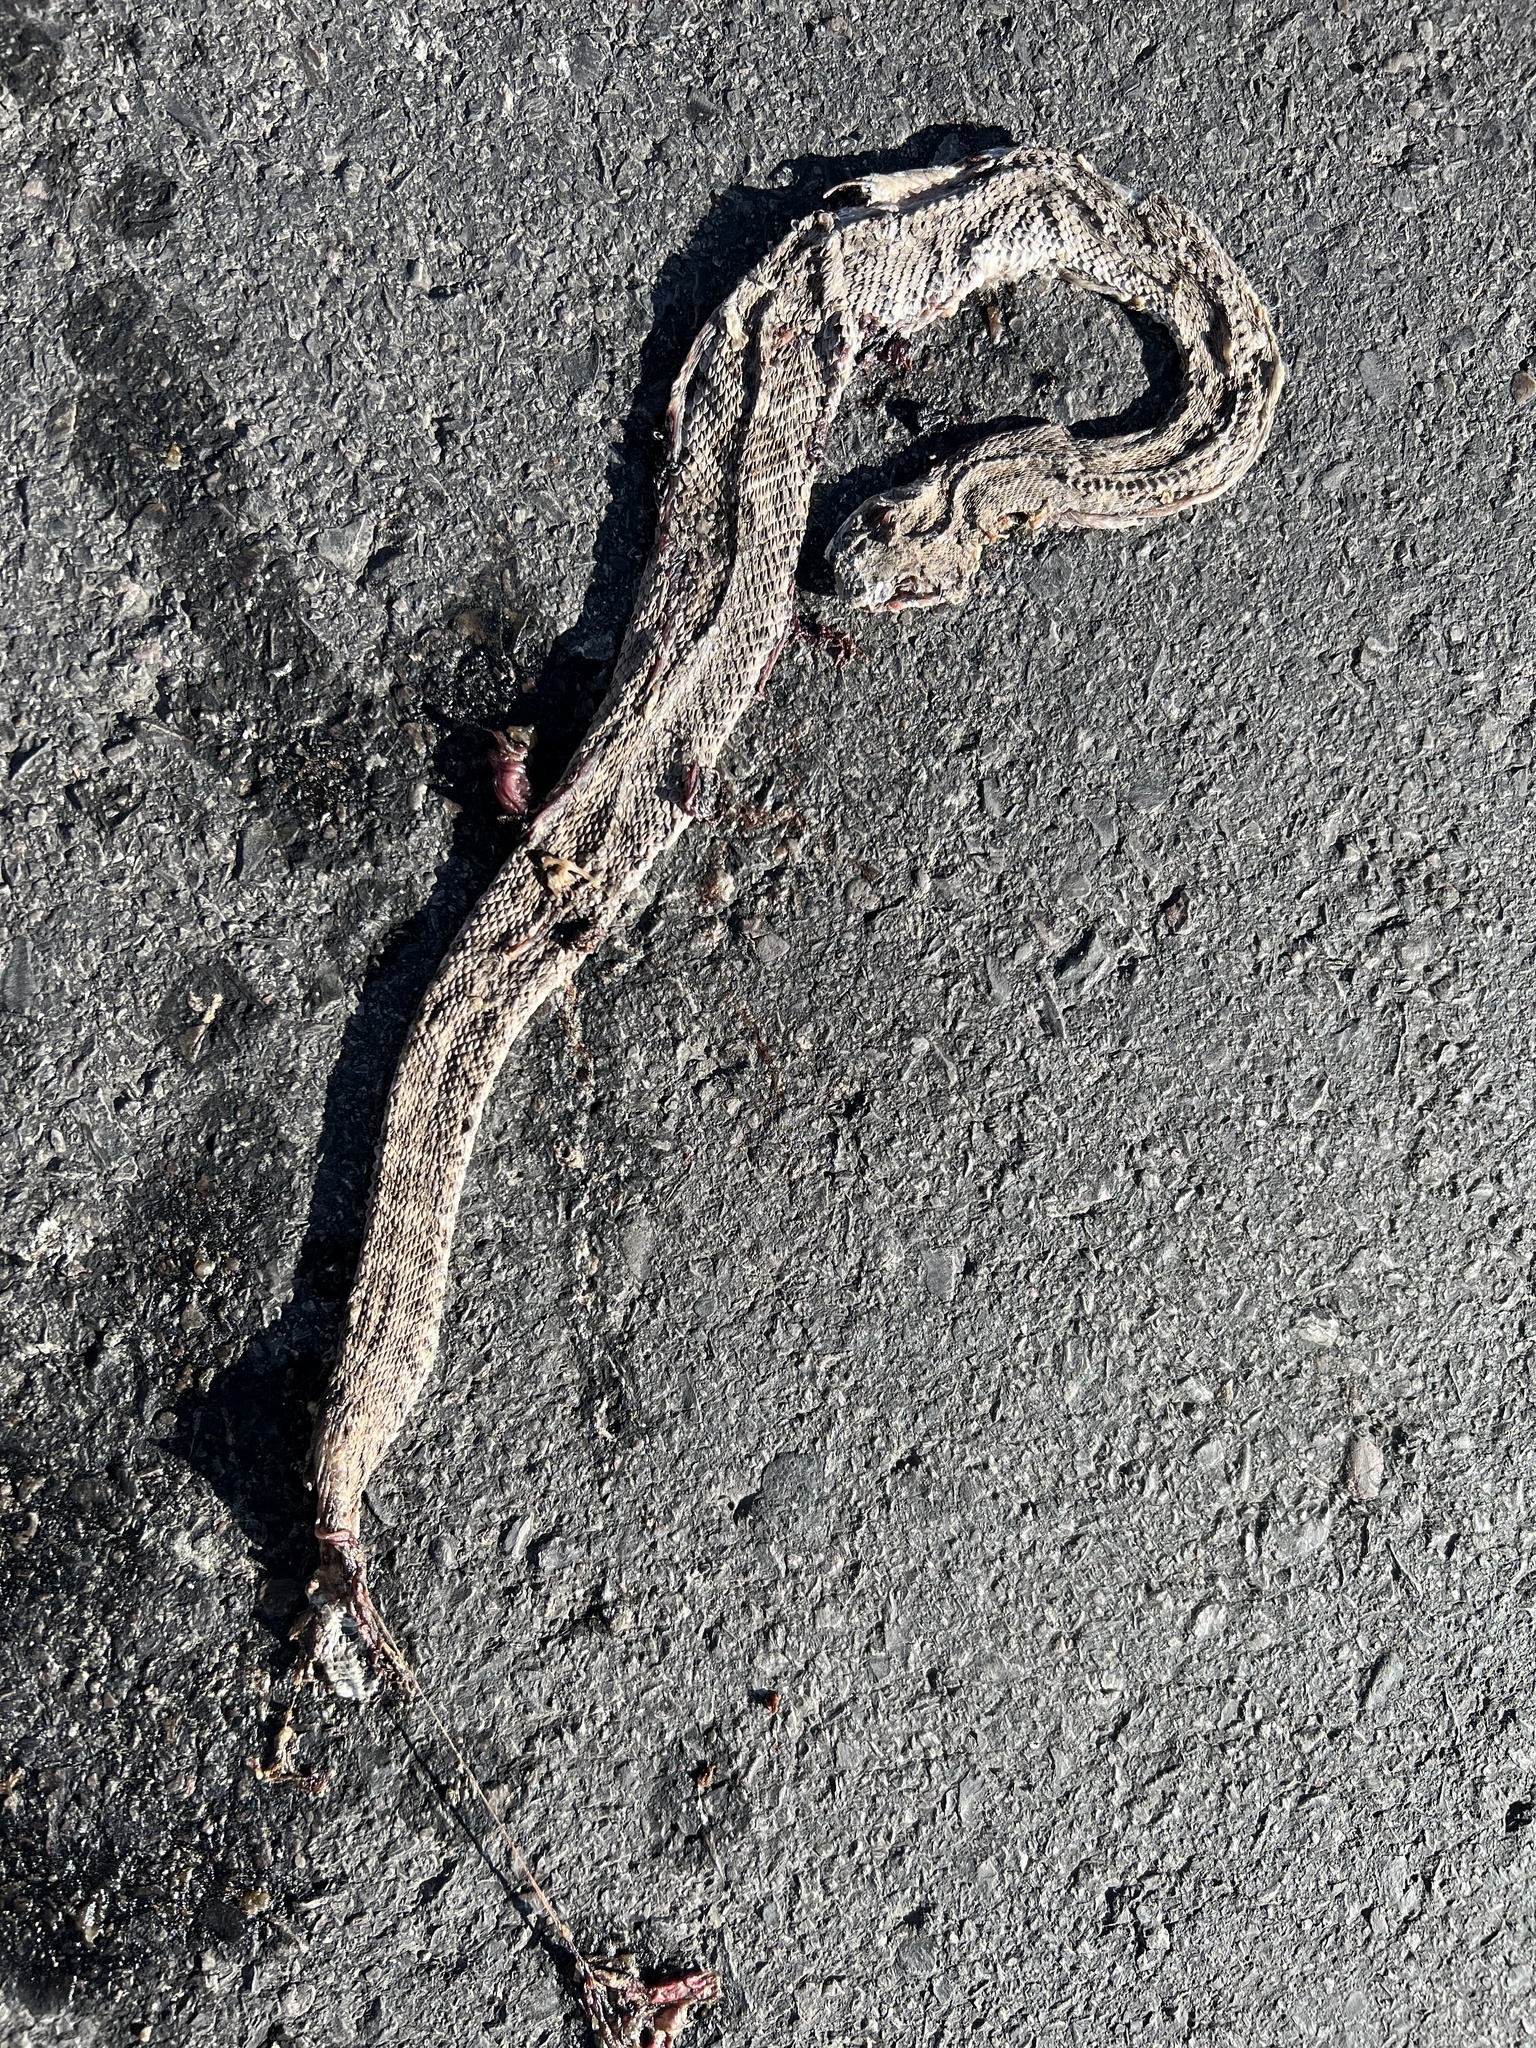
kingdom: Animalia
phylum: Chordata
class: Squamata
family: Viperidae
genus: Crotalus
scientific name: Crotalus atrox
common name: Western diamond-backed rattlesnake
